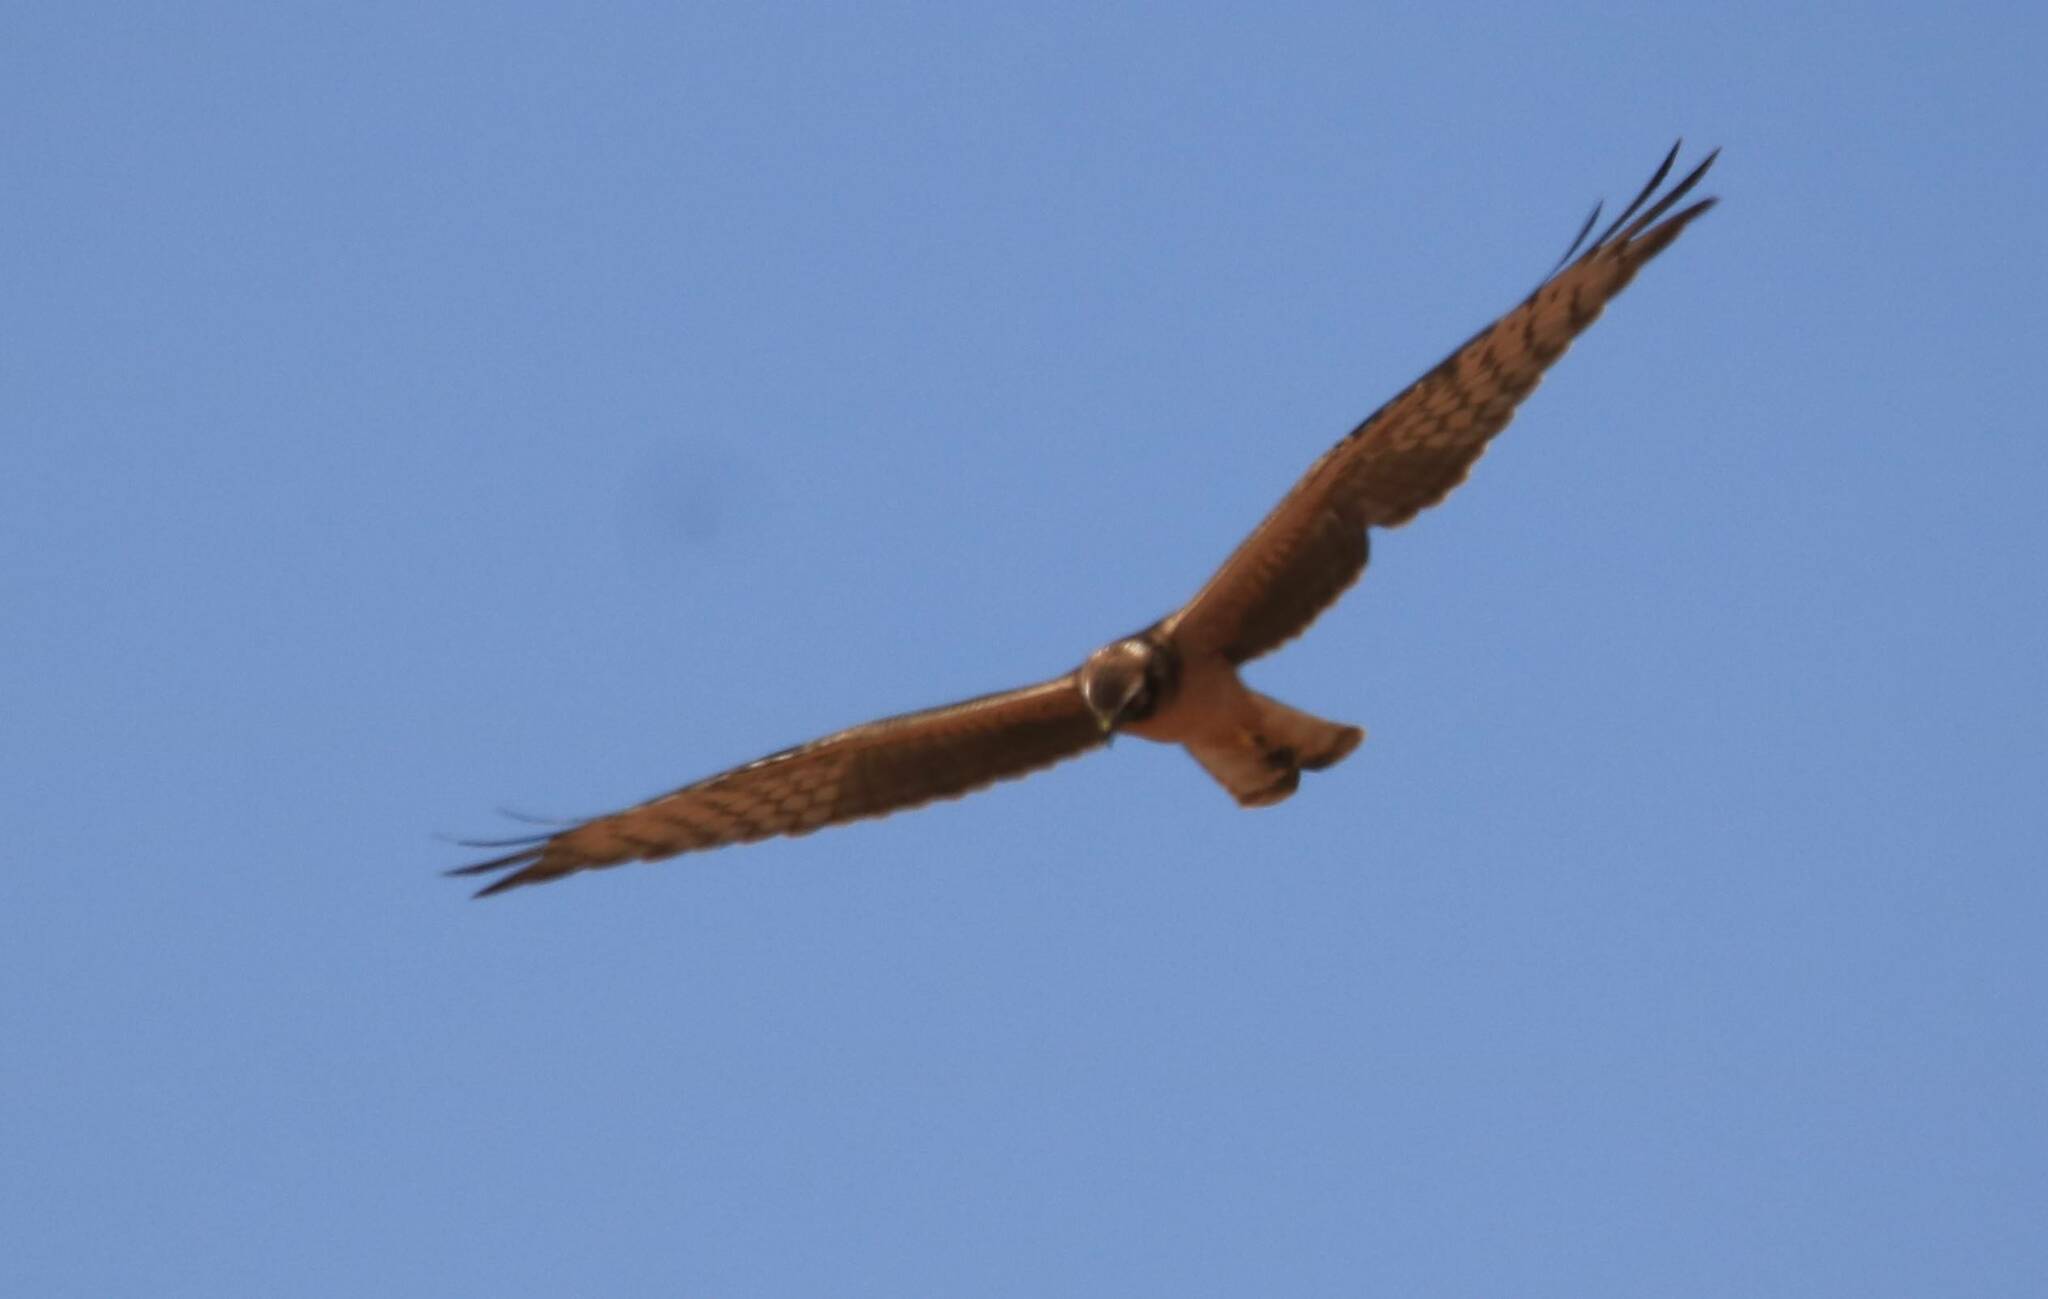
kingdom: Animalia
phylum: Chordata
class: Aves
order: Accipitriformes
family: Accipitridae
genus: Circus
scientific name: Circus pygargus
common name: Montagu's harrier
